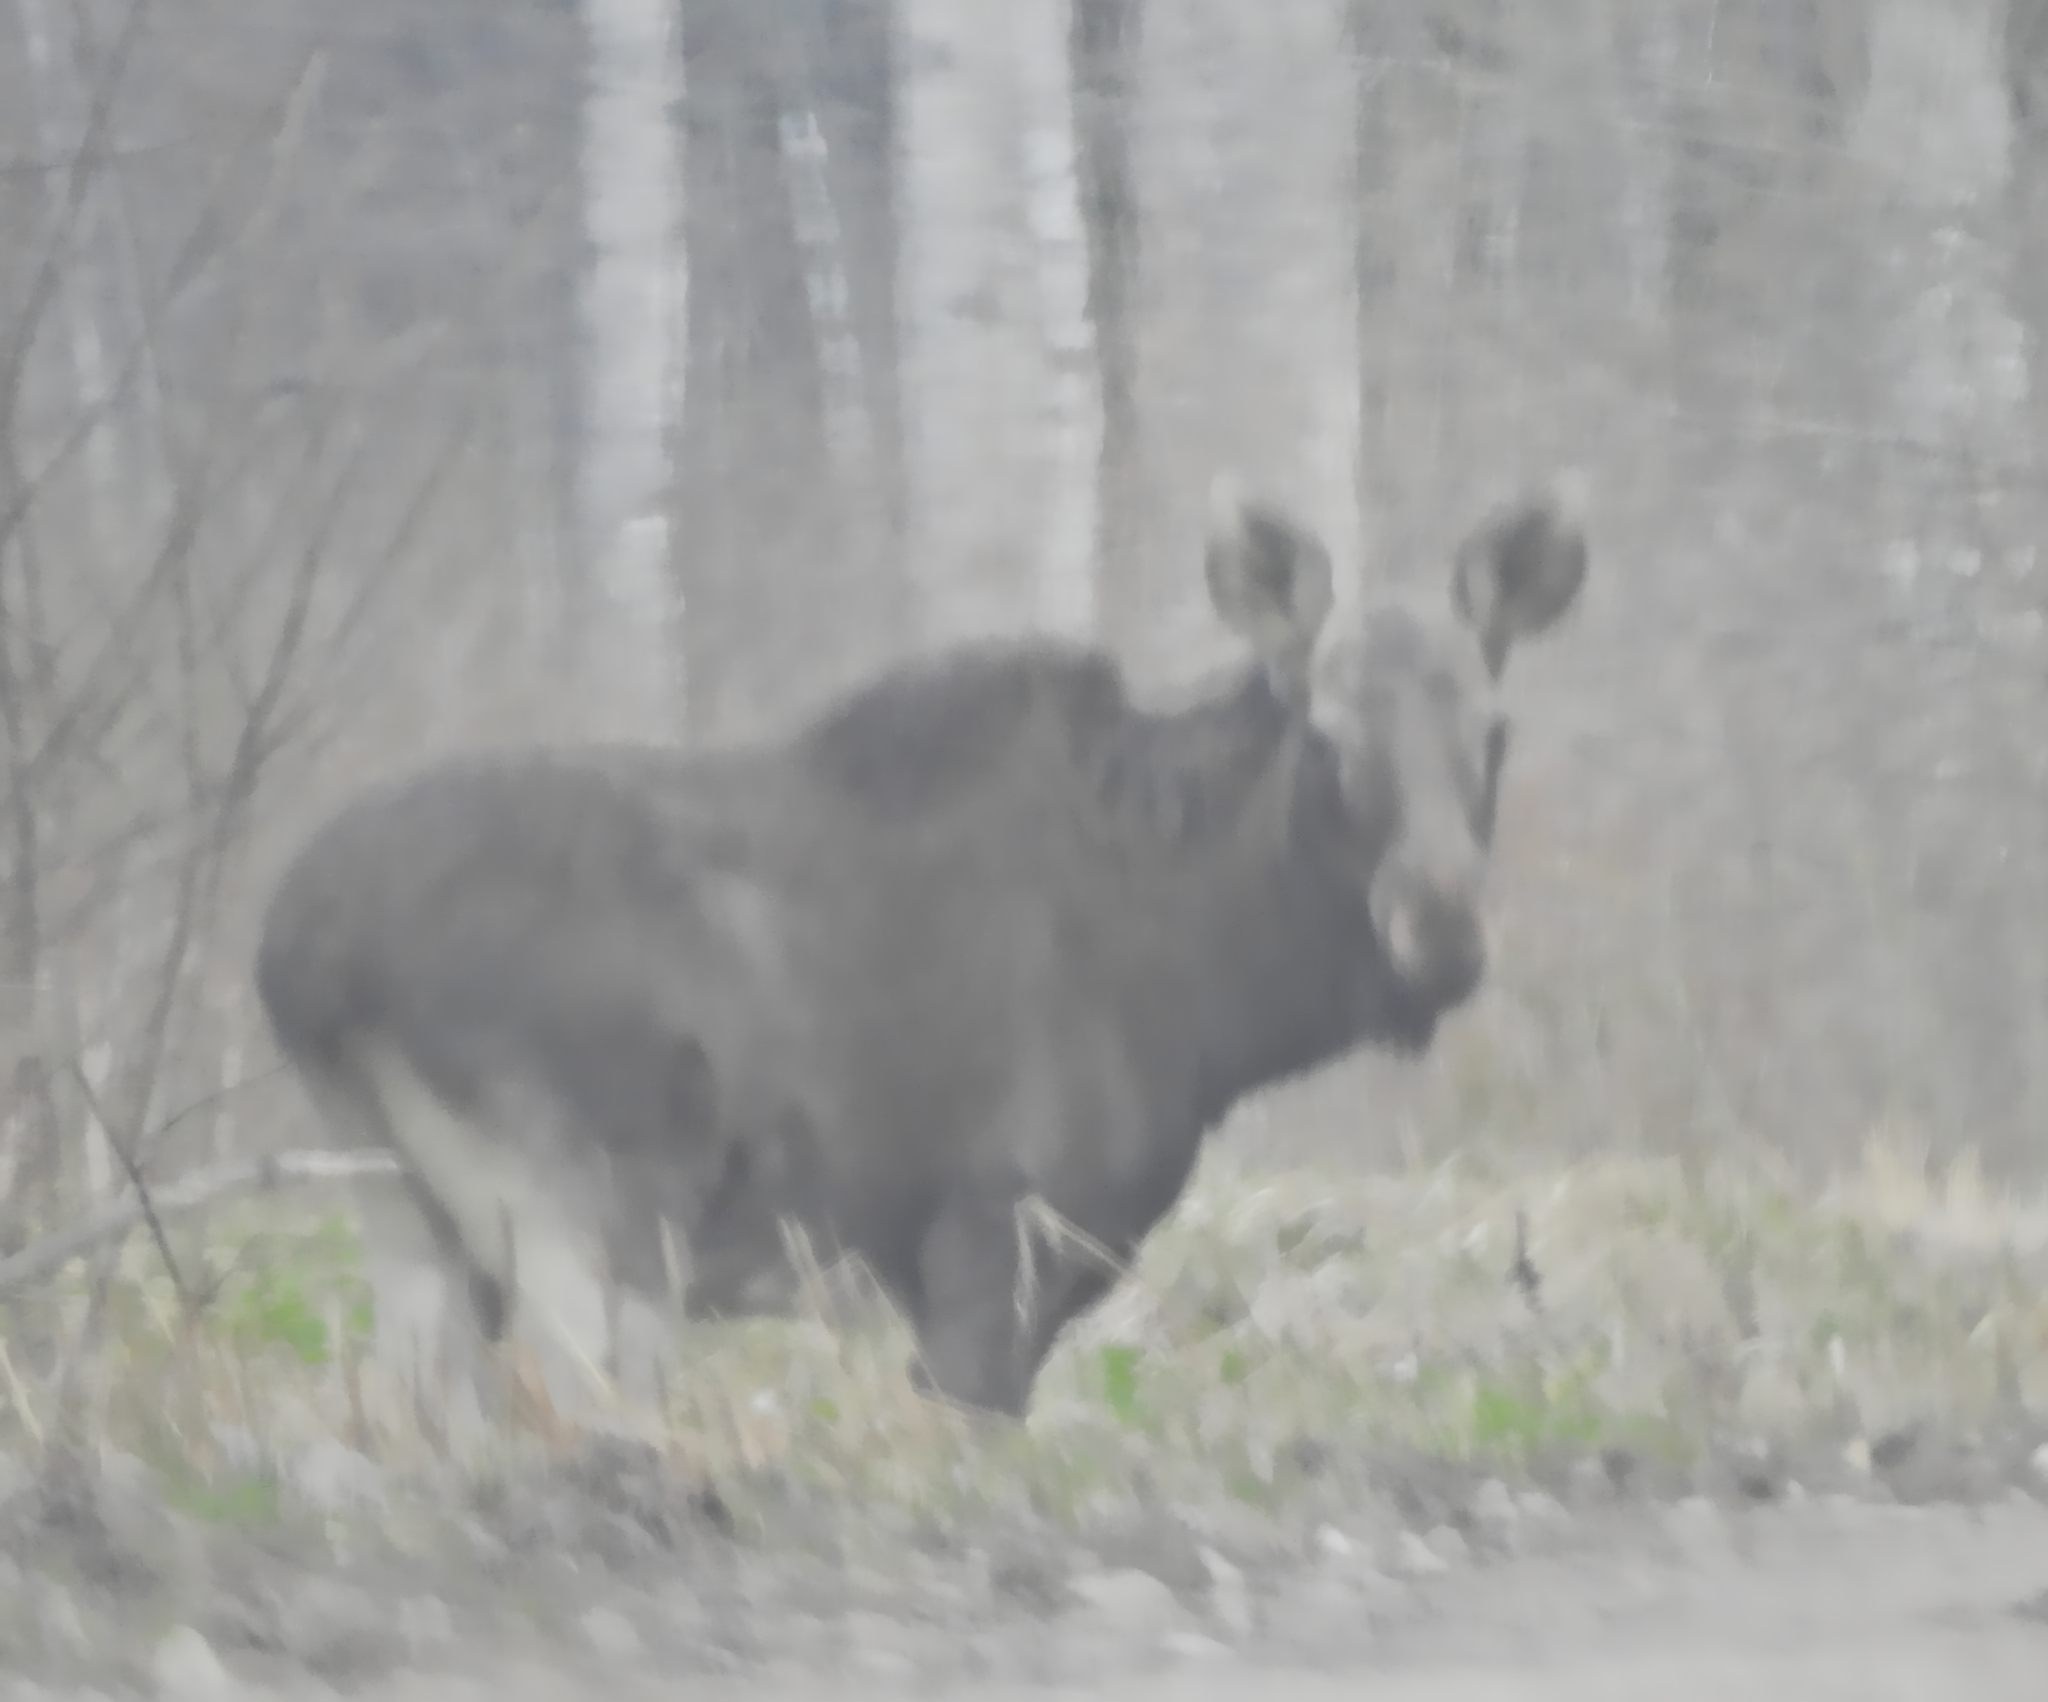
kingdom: Animalia
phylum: Chordata
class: Mammalia
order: Artiodactyla
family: Cervidae
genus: Alces
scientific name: Alces alces
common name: Moose
